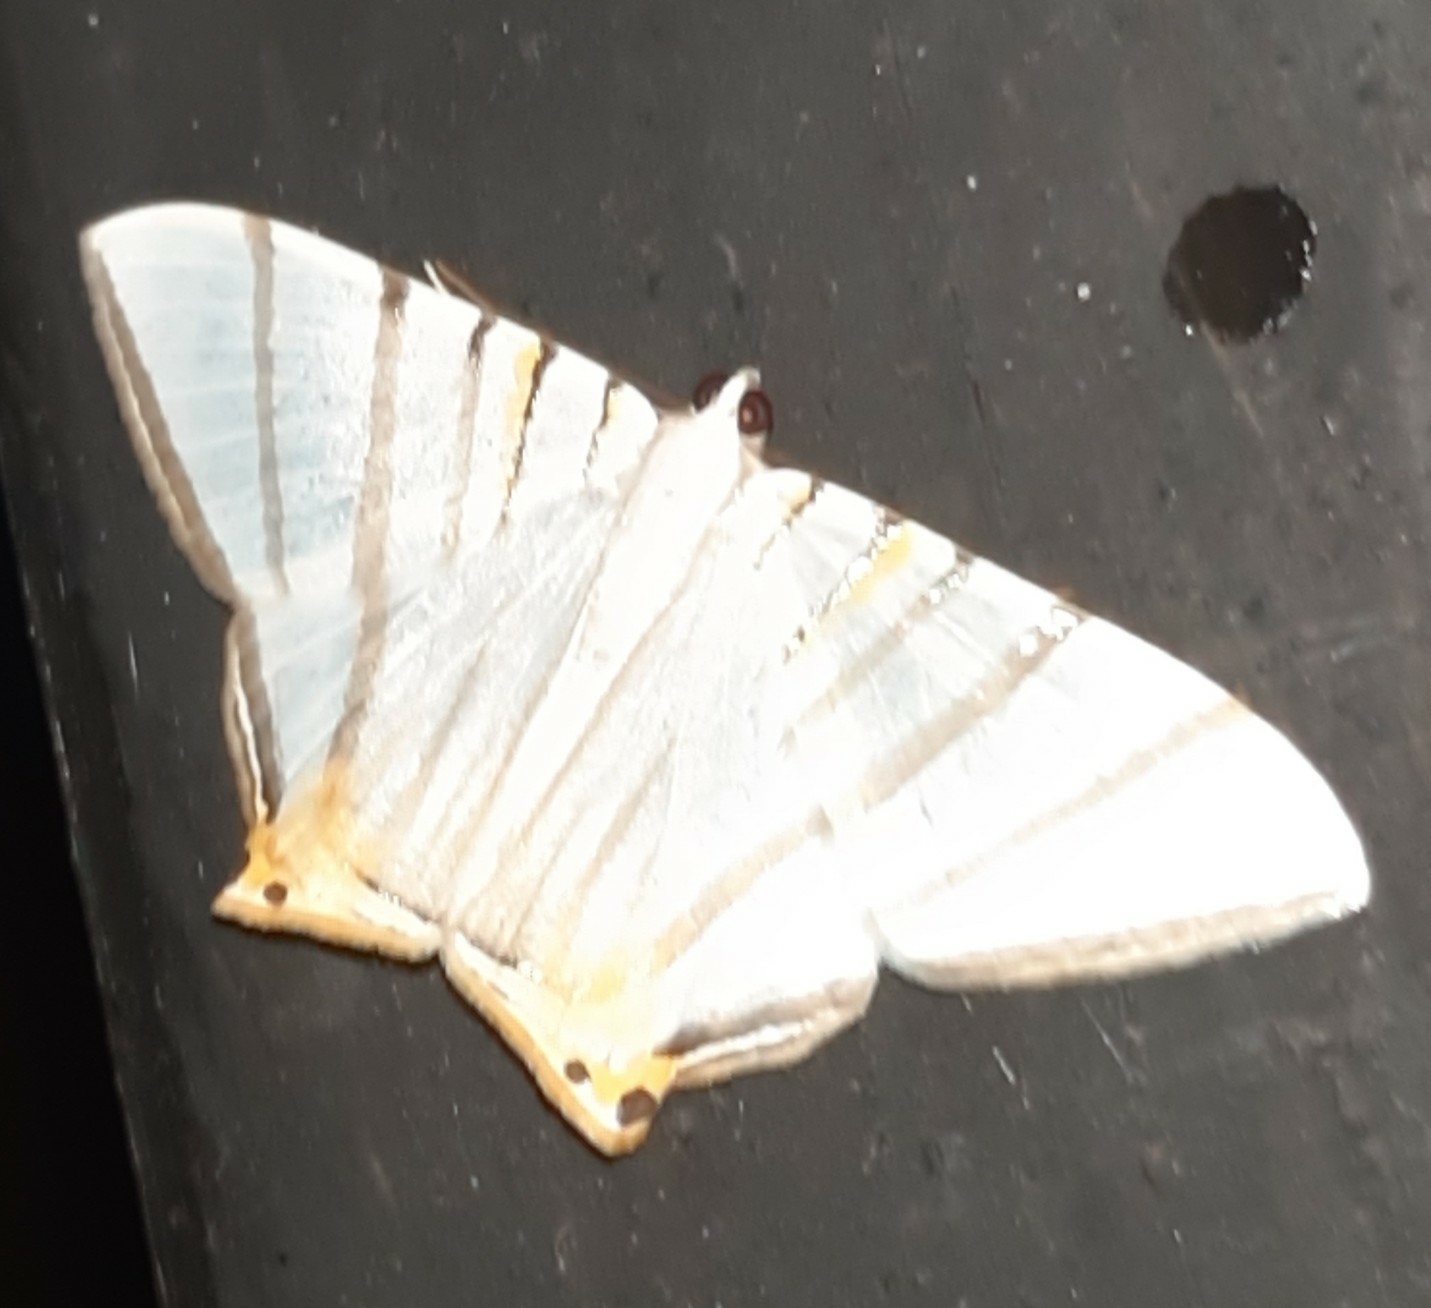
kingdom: Animalia
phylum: Arthropoda
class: Insecta
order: Lepidoptera
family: Geometridae
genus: Phrygionis
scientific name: Phrygionis platinata
